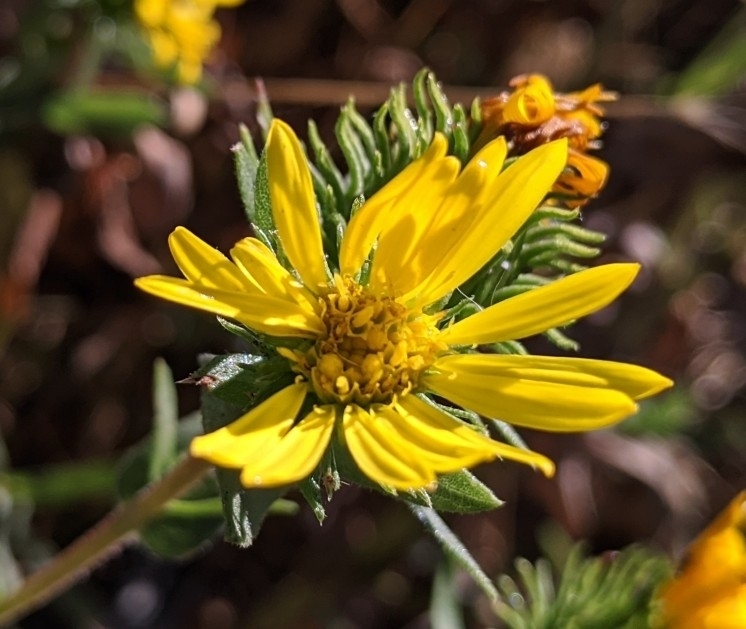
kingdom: Plantae
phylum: Tracheophyta
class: Magnoliopsida
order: Asterales
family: Asteraceae
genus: Grindelia
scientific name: Grindelia integrifolia
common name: Puget sound gumweed
